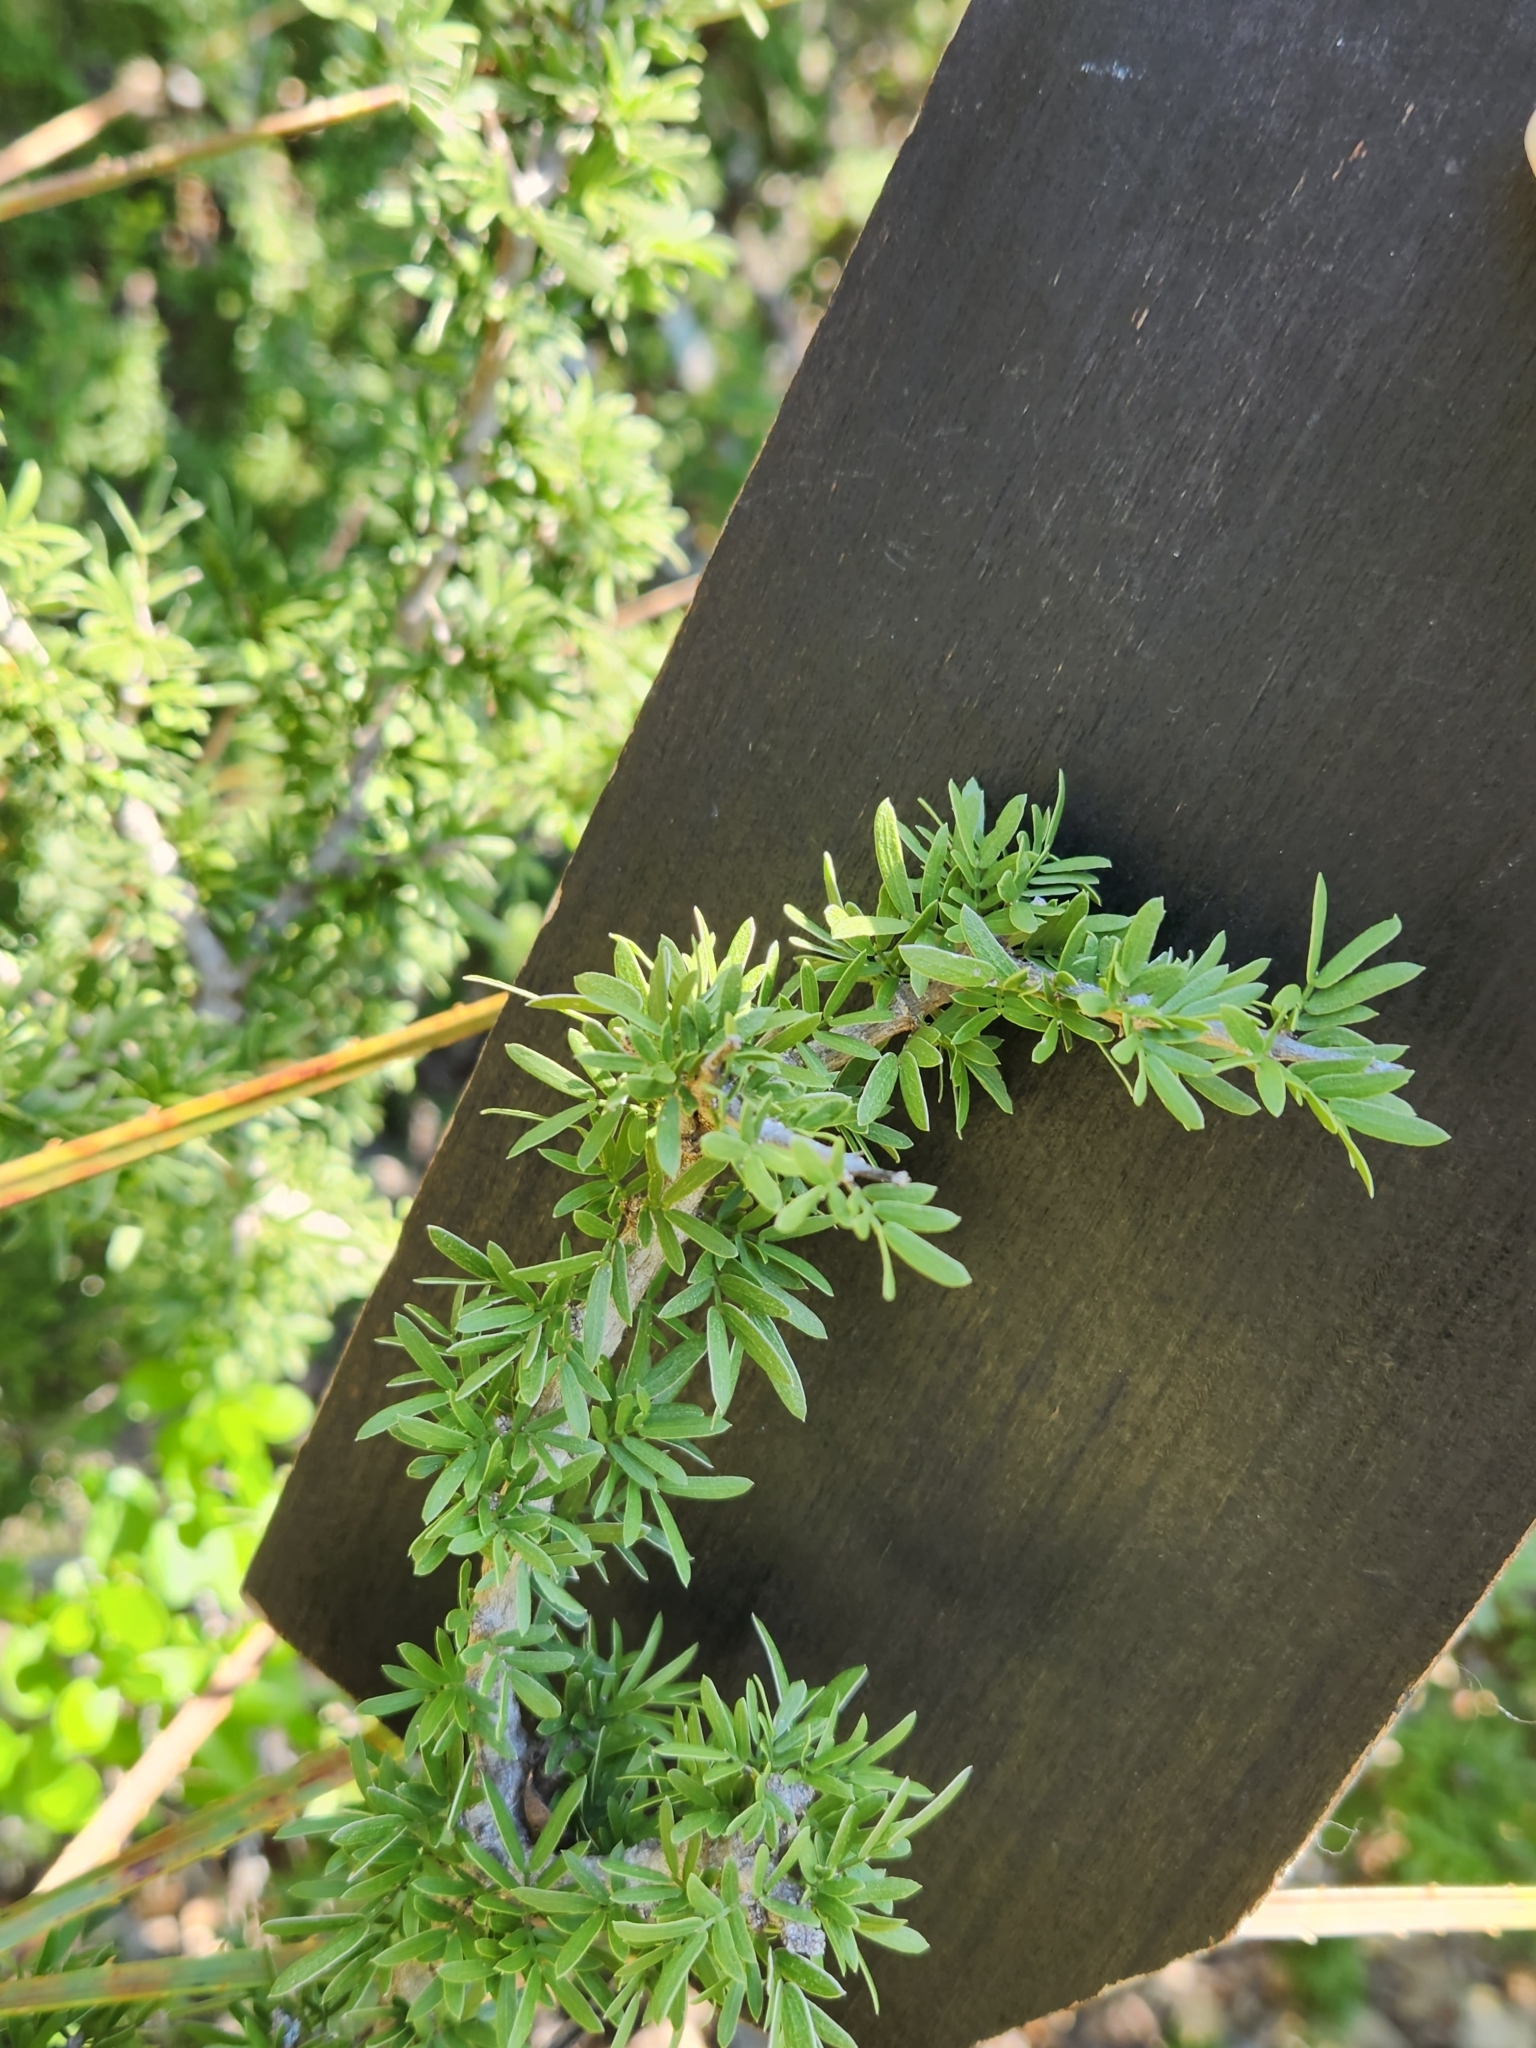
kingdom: Plantae
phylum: Tracheophyta
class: Magnoliopsida
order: Zygophyllales
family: Zygophyllaceae
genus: Porlieria
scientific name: Porlieria angustifolia
